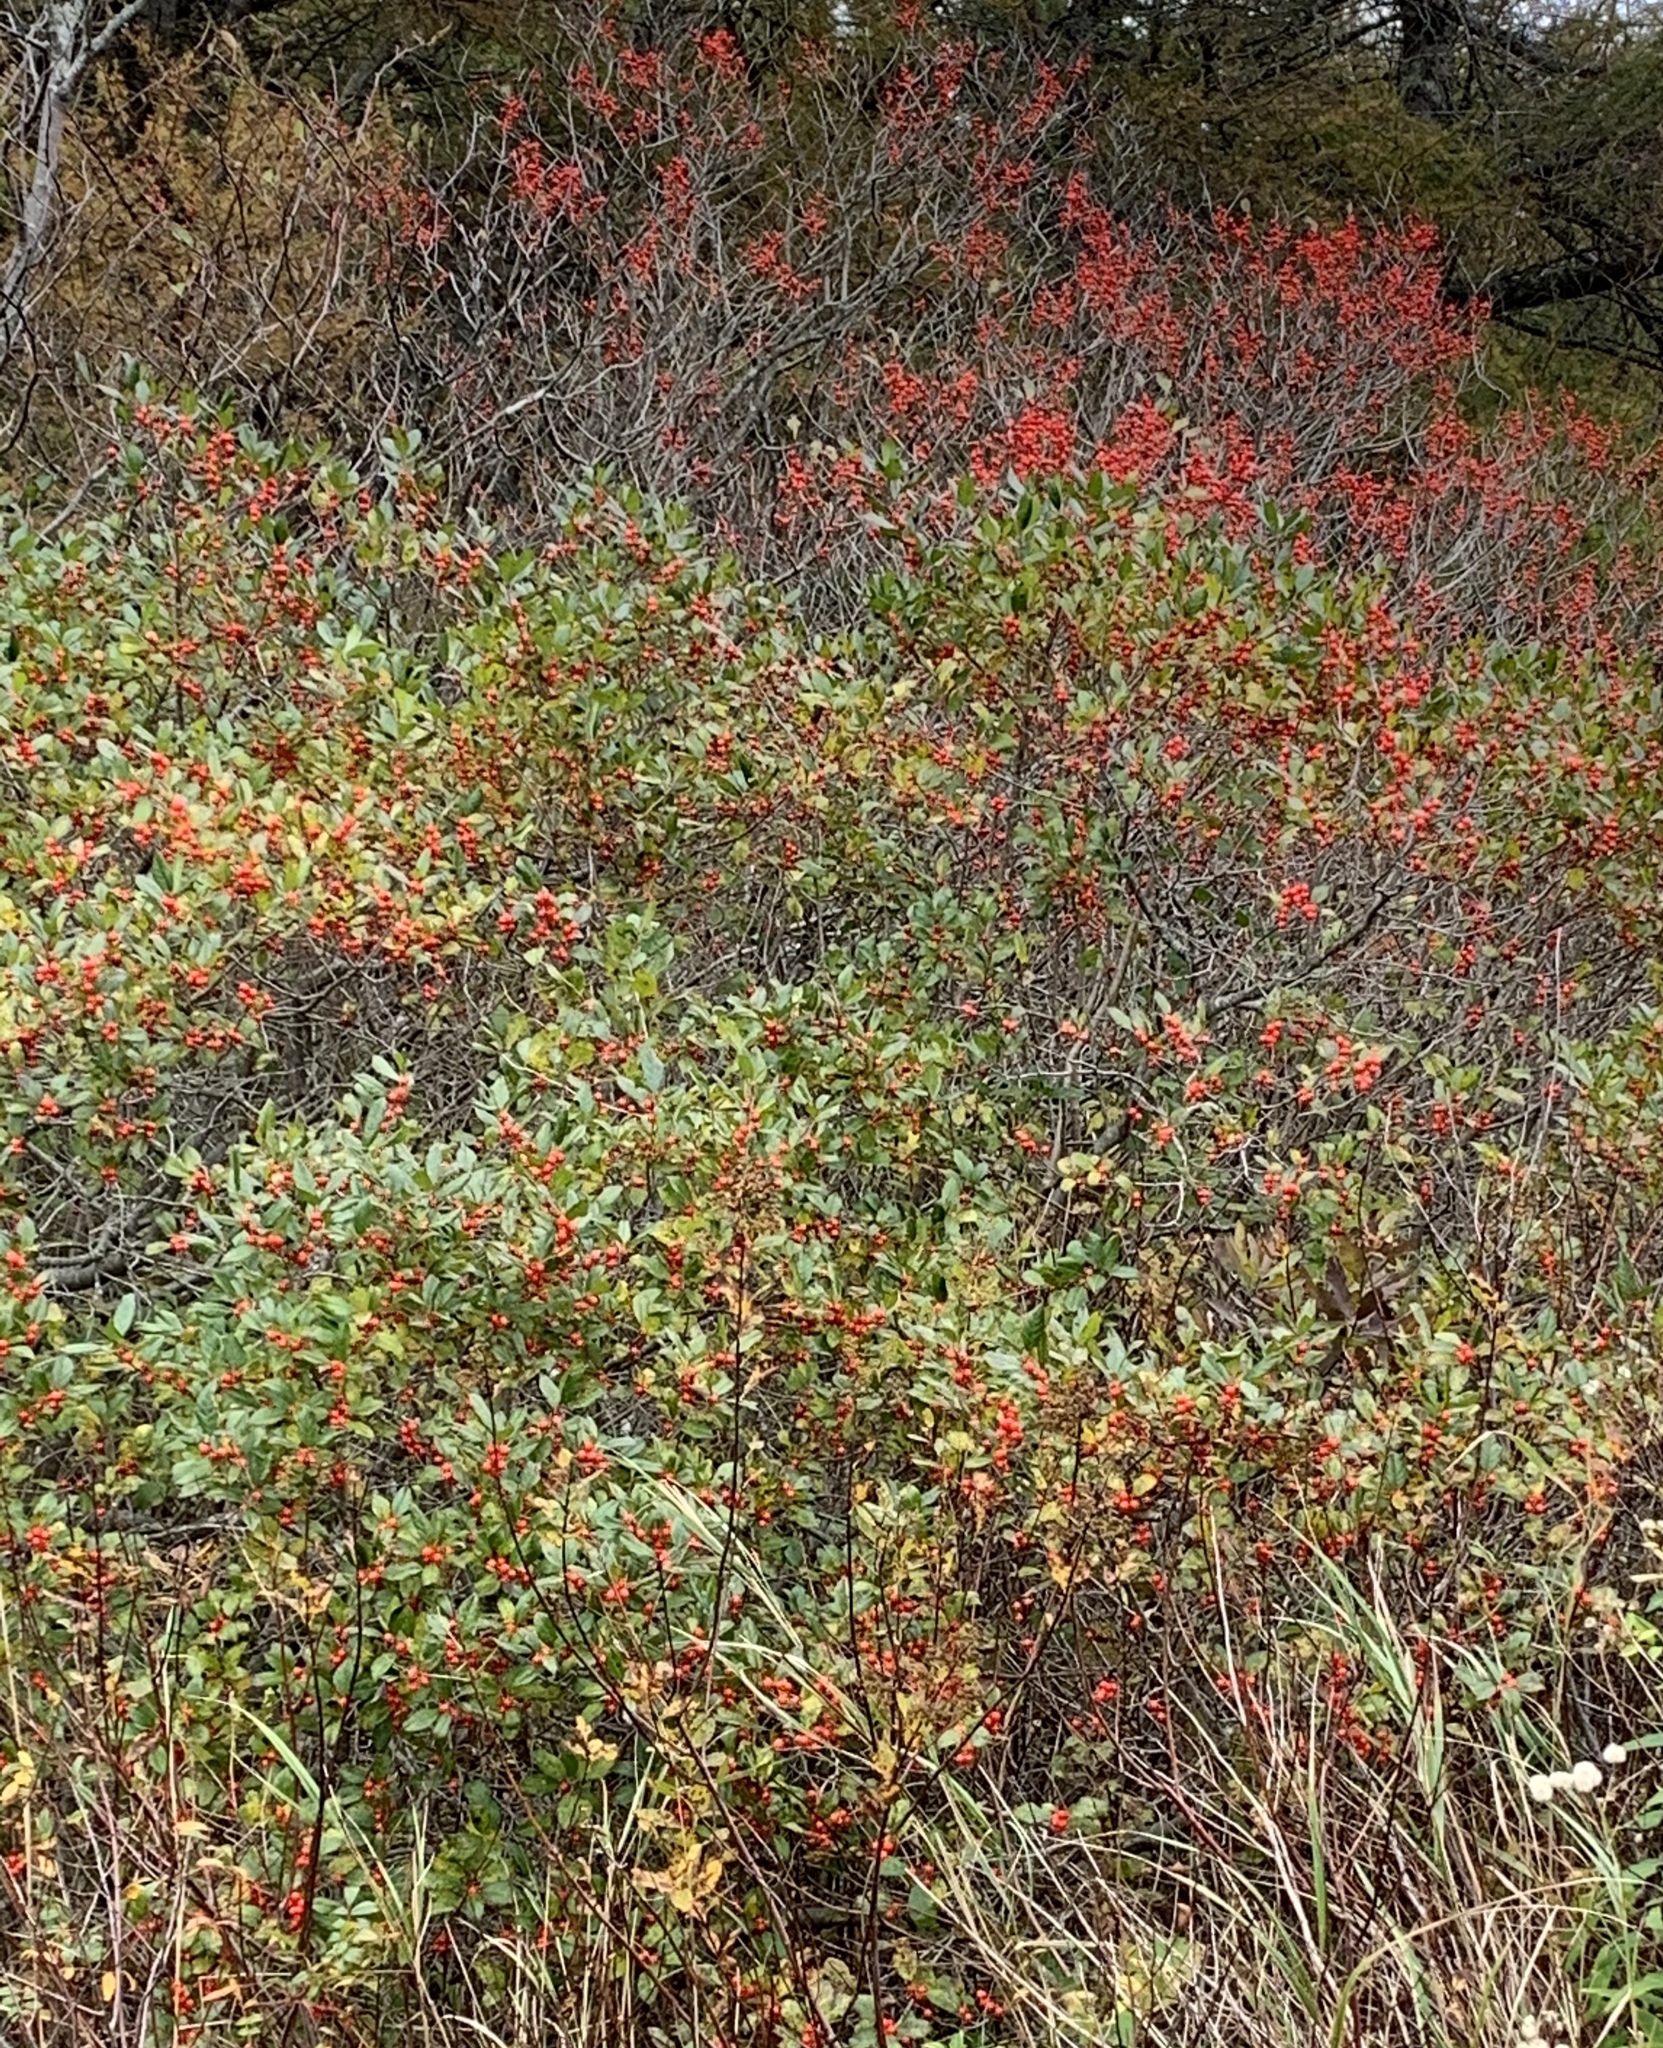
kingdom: Plantae
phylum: Tracheophyta
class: Magnoliopsida
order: Aquifoliales
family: Aquifoliaceae
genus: Ilex
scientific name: Ilex verticillata
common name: Virginia winterberry
